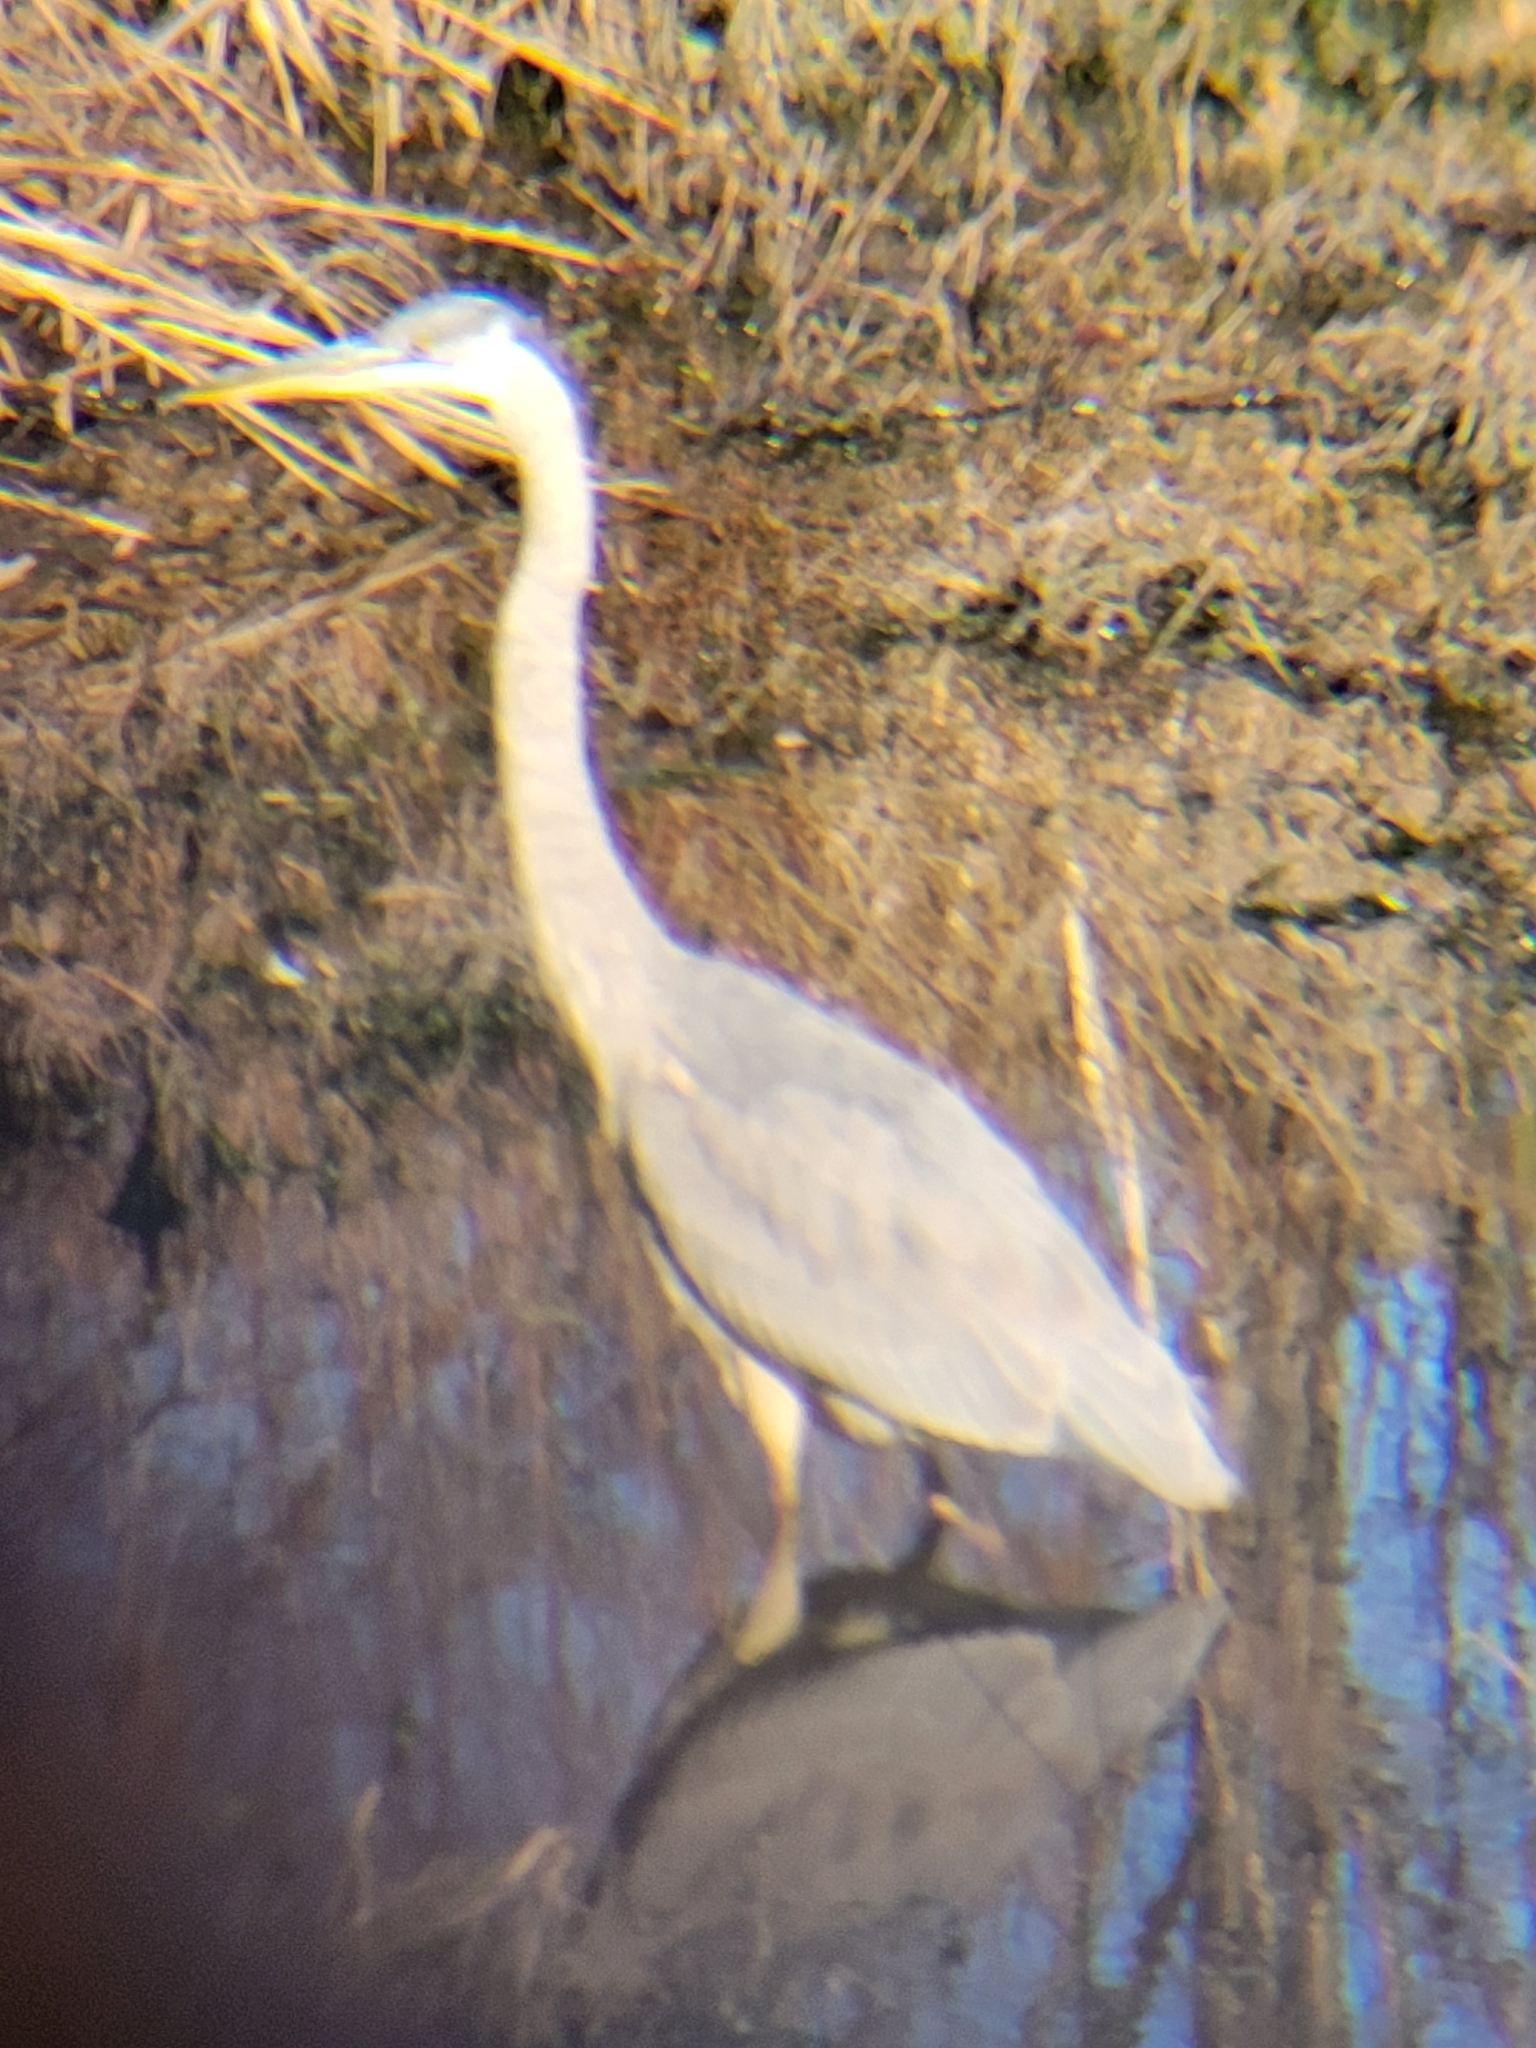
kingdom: Animalia
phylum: Chordata
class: Aves
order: Pelecaniformes
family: Ardeidae
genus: Ardea
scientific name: Ardea herodias
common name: Great blue heron
